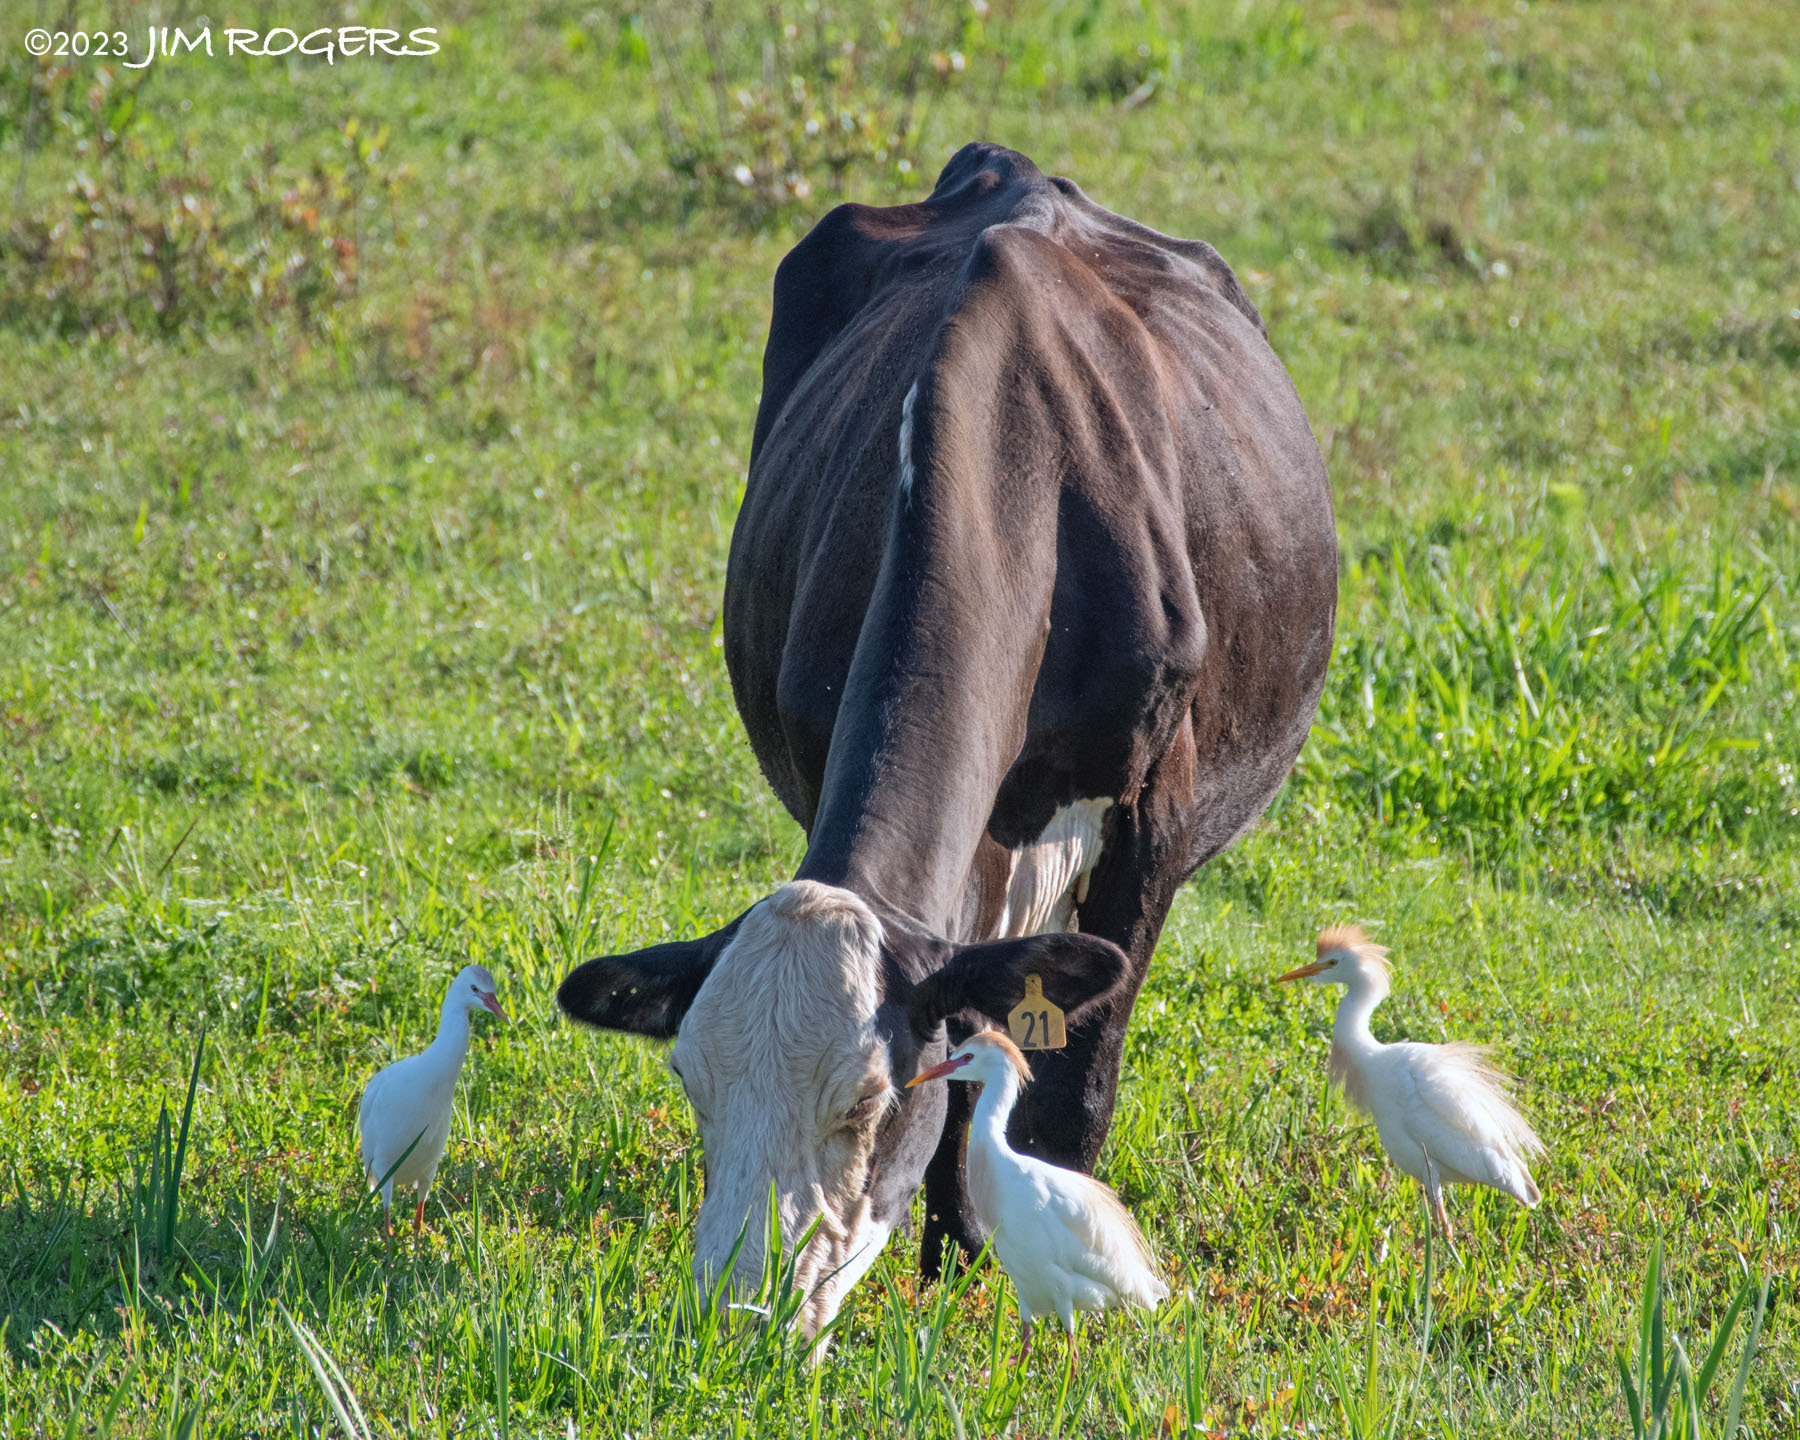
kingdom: Animalia
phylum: Chordata
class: Aves
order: Pelecaniformes
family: Ardeidae
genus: Bubulcus
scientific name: Bubulcus ibis
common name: Cattle egret
